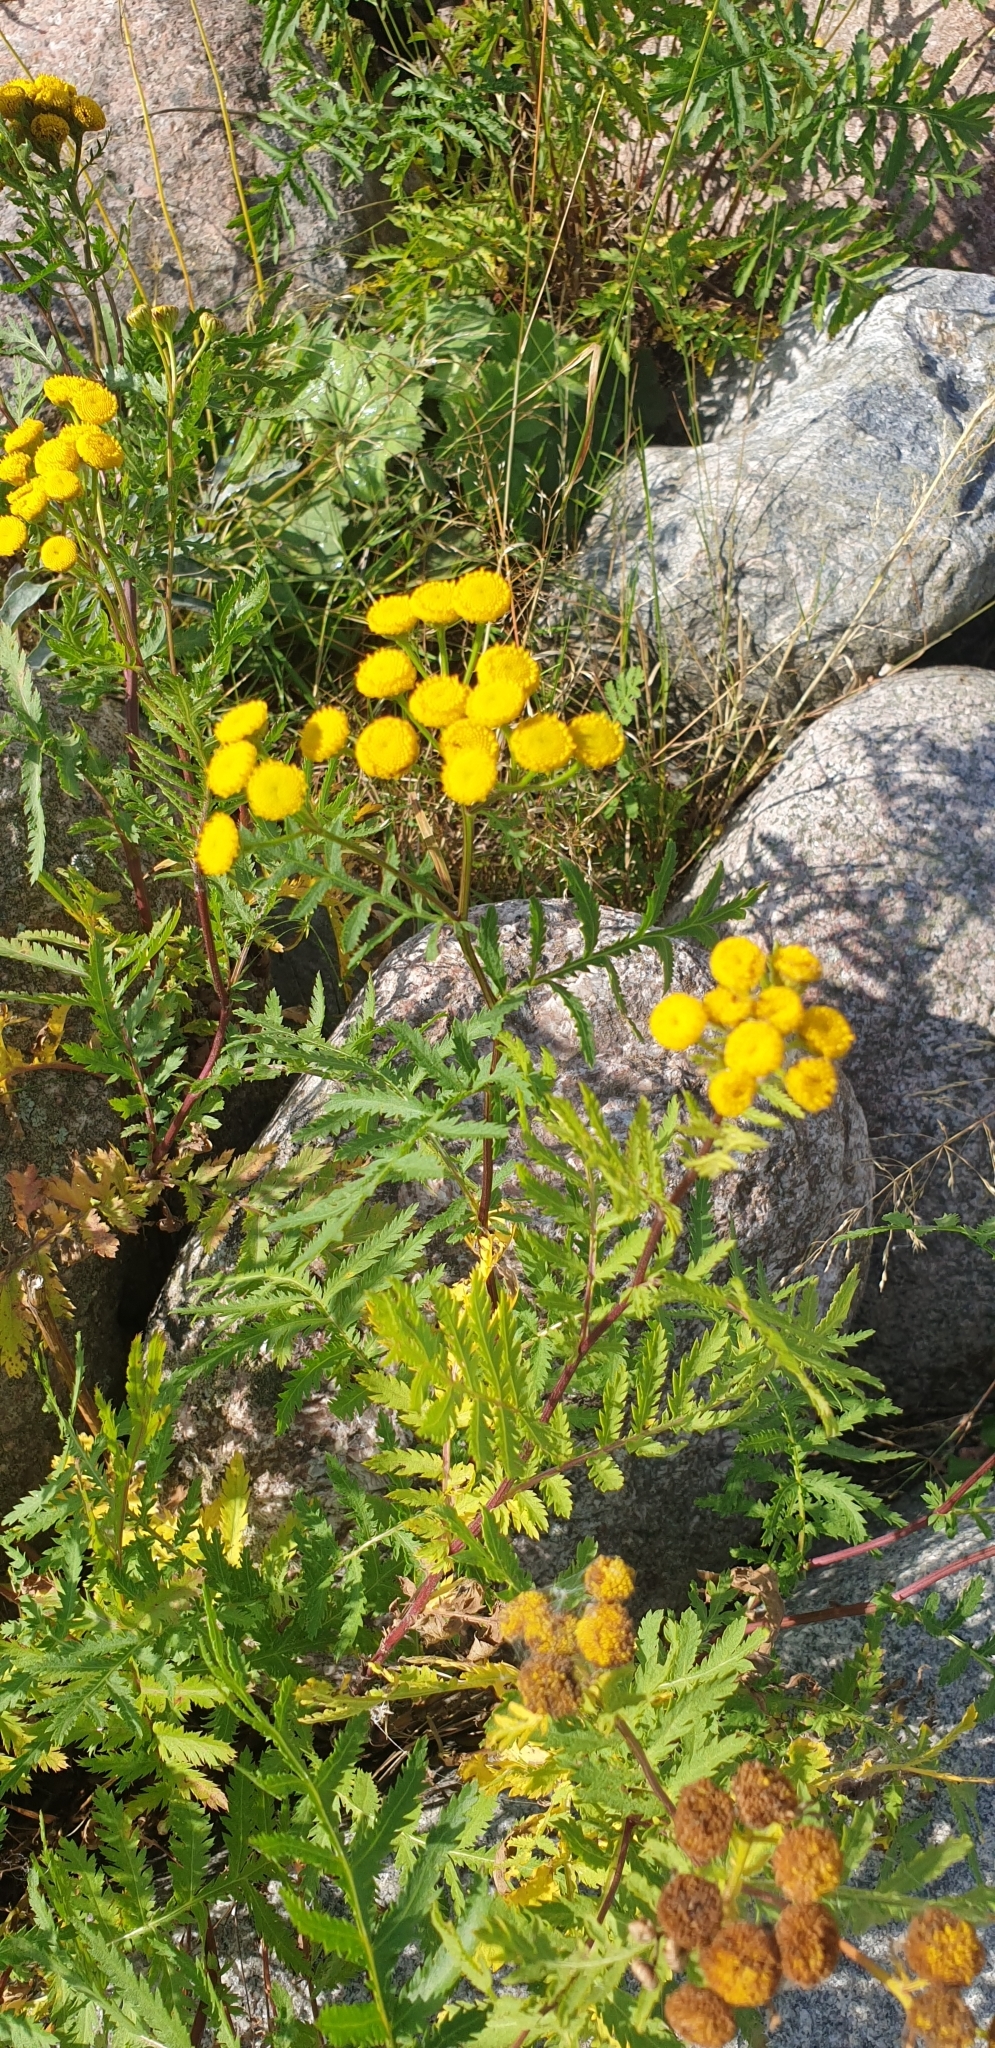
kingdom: Plantae
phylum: Tracheophyta
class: Magnoliopsida
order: Asterales
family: Asteraceae
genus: Tanacetum
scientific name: Tanacetum vulgare
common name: Common tansy
